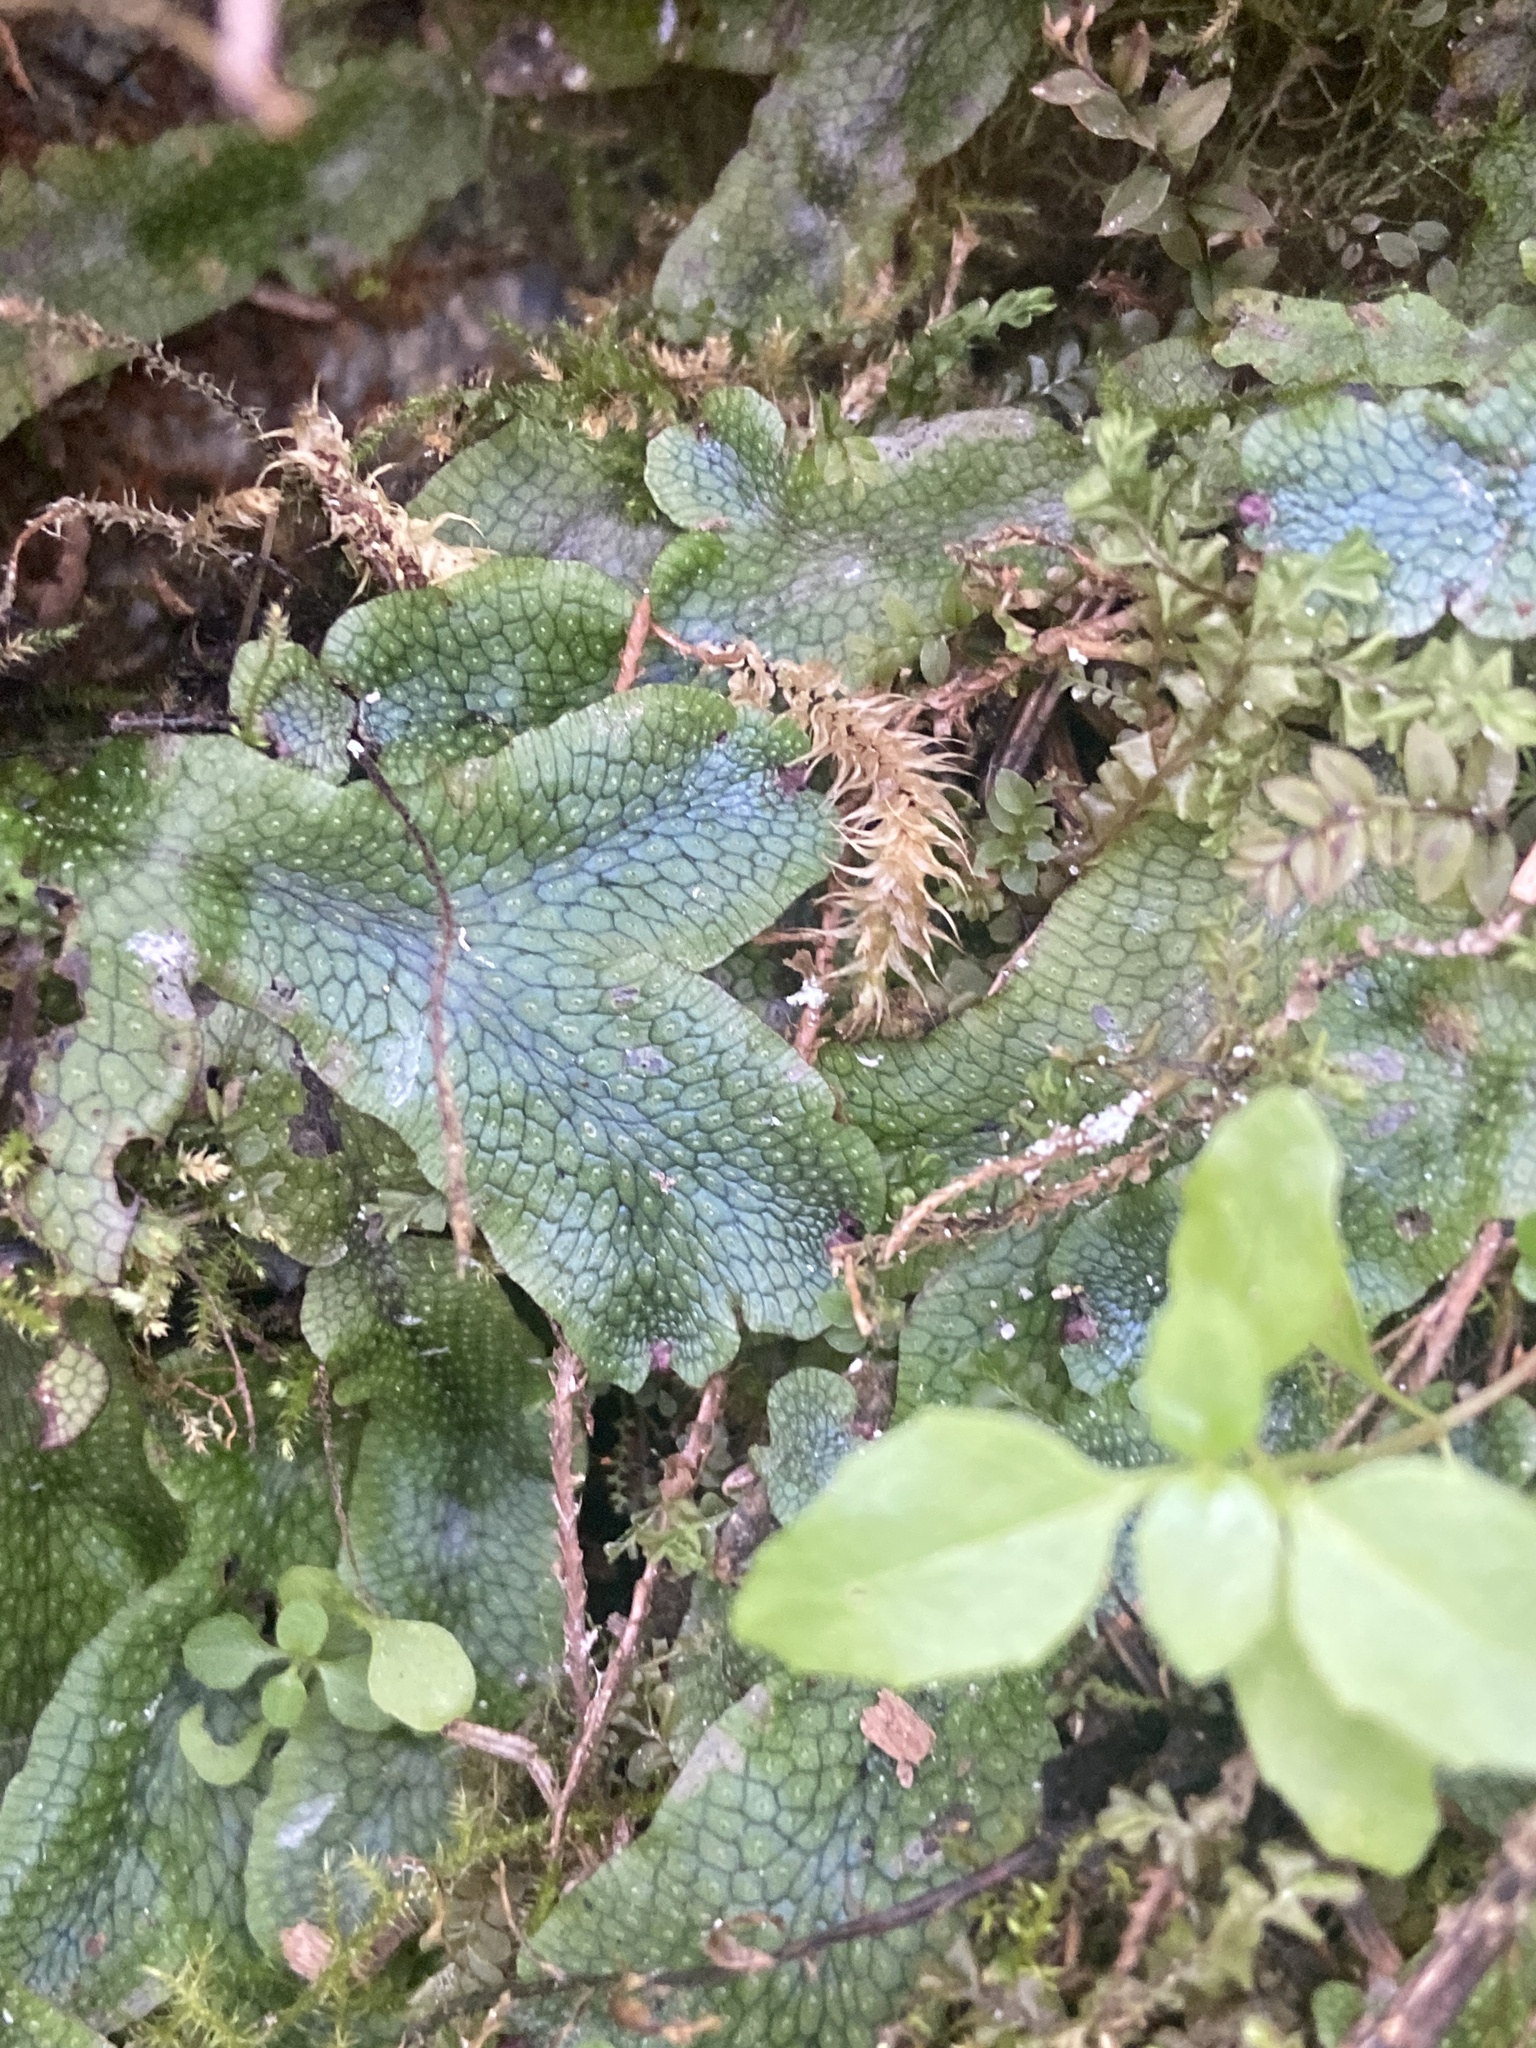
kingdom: Plantae
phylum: Marchantiophyta
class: Marchantiopsida
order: Marchantiales
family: Conocephalaceae
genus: Conocephalum
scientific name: Conocephalum salebrosum
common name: Cat-tongue liverwort
